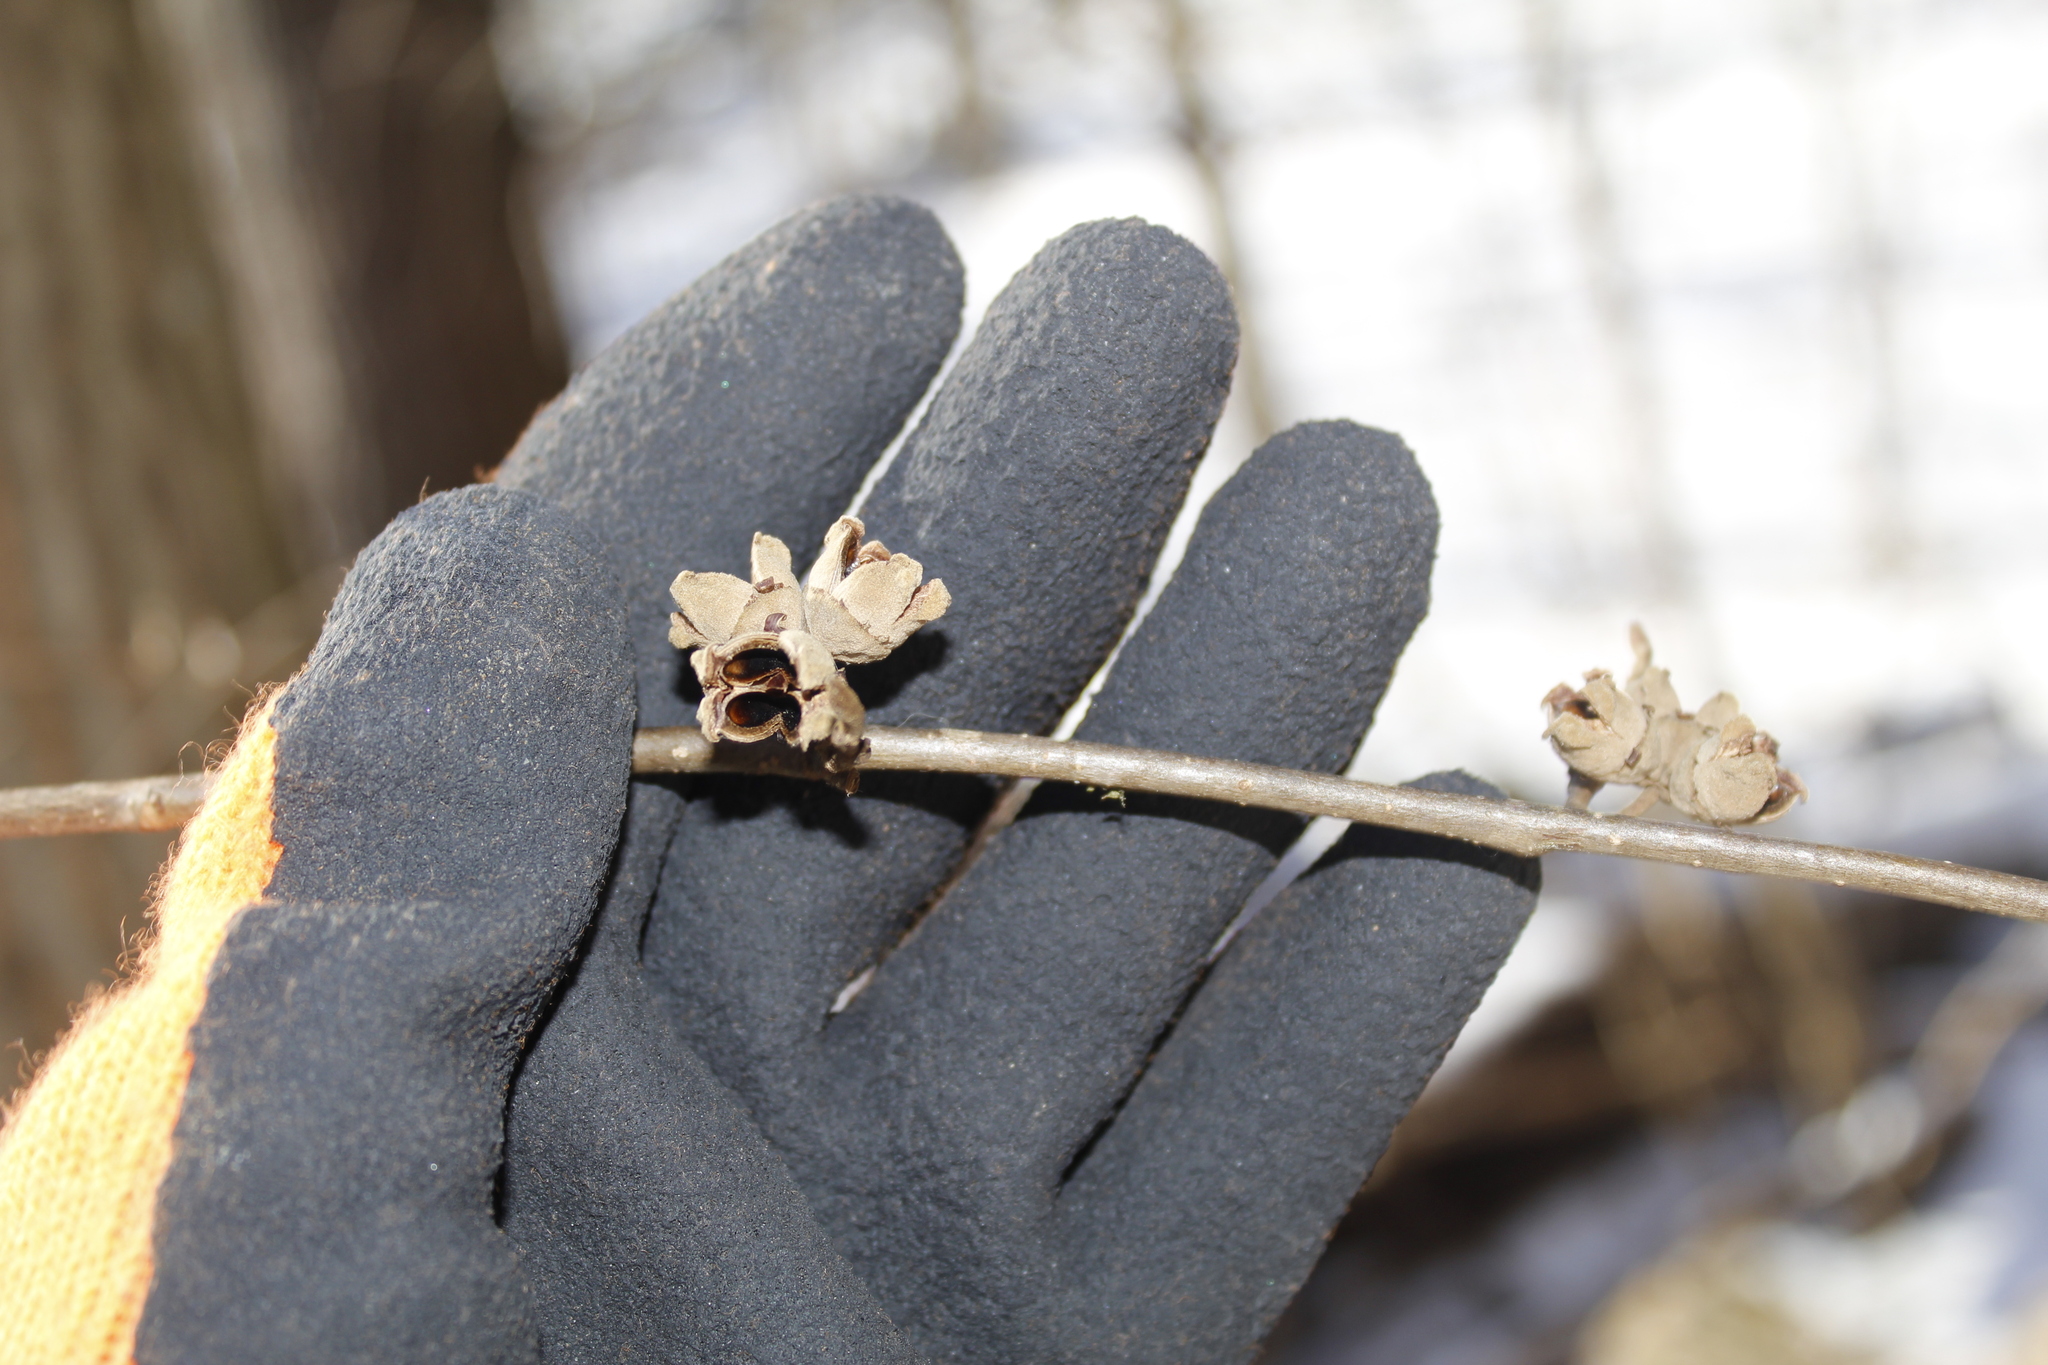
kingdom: Plantae
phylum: Tracheophyta
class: Magnoliopsida
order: Saxifragales
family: Hamamelidaceae
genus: Hamamelis
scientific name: Hamamelis virginiana
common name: Witch-hazel
